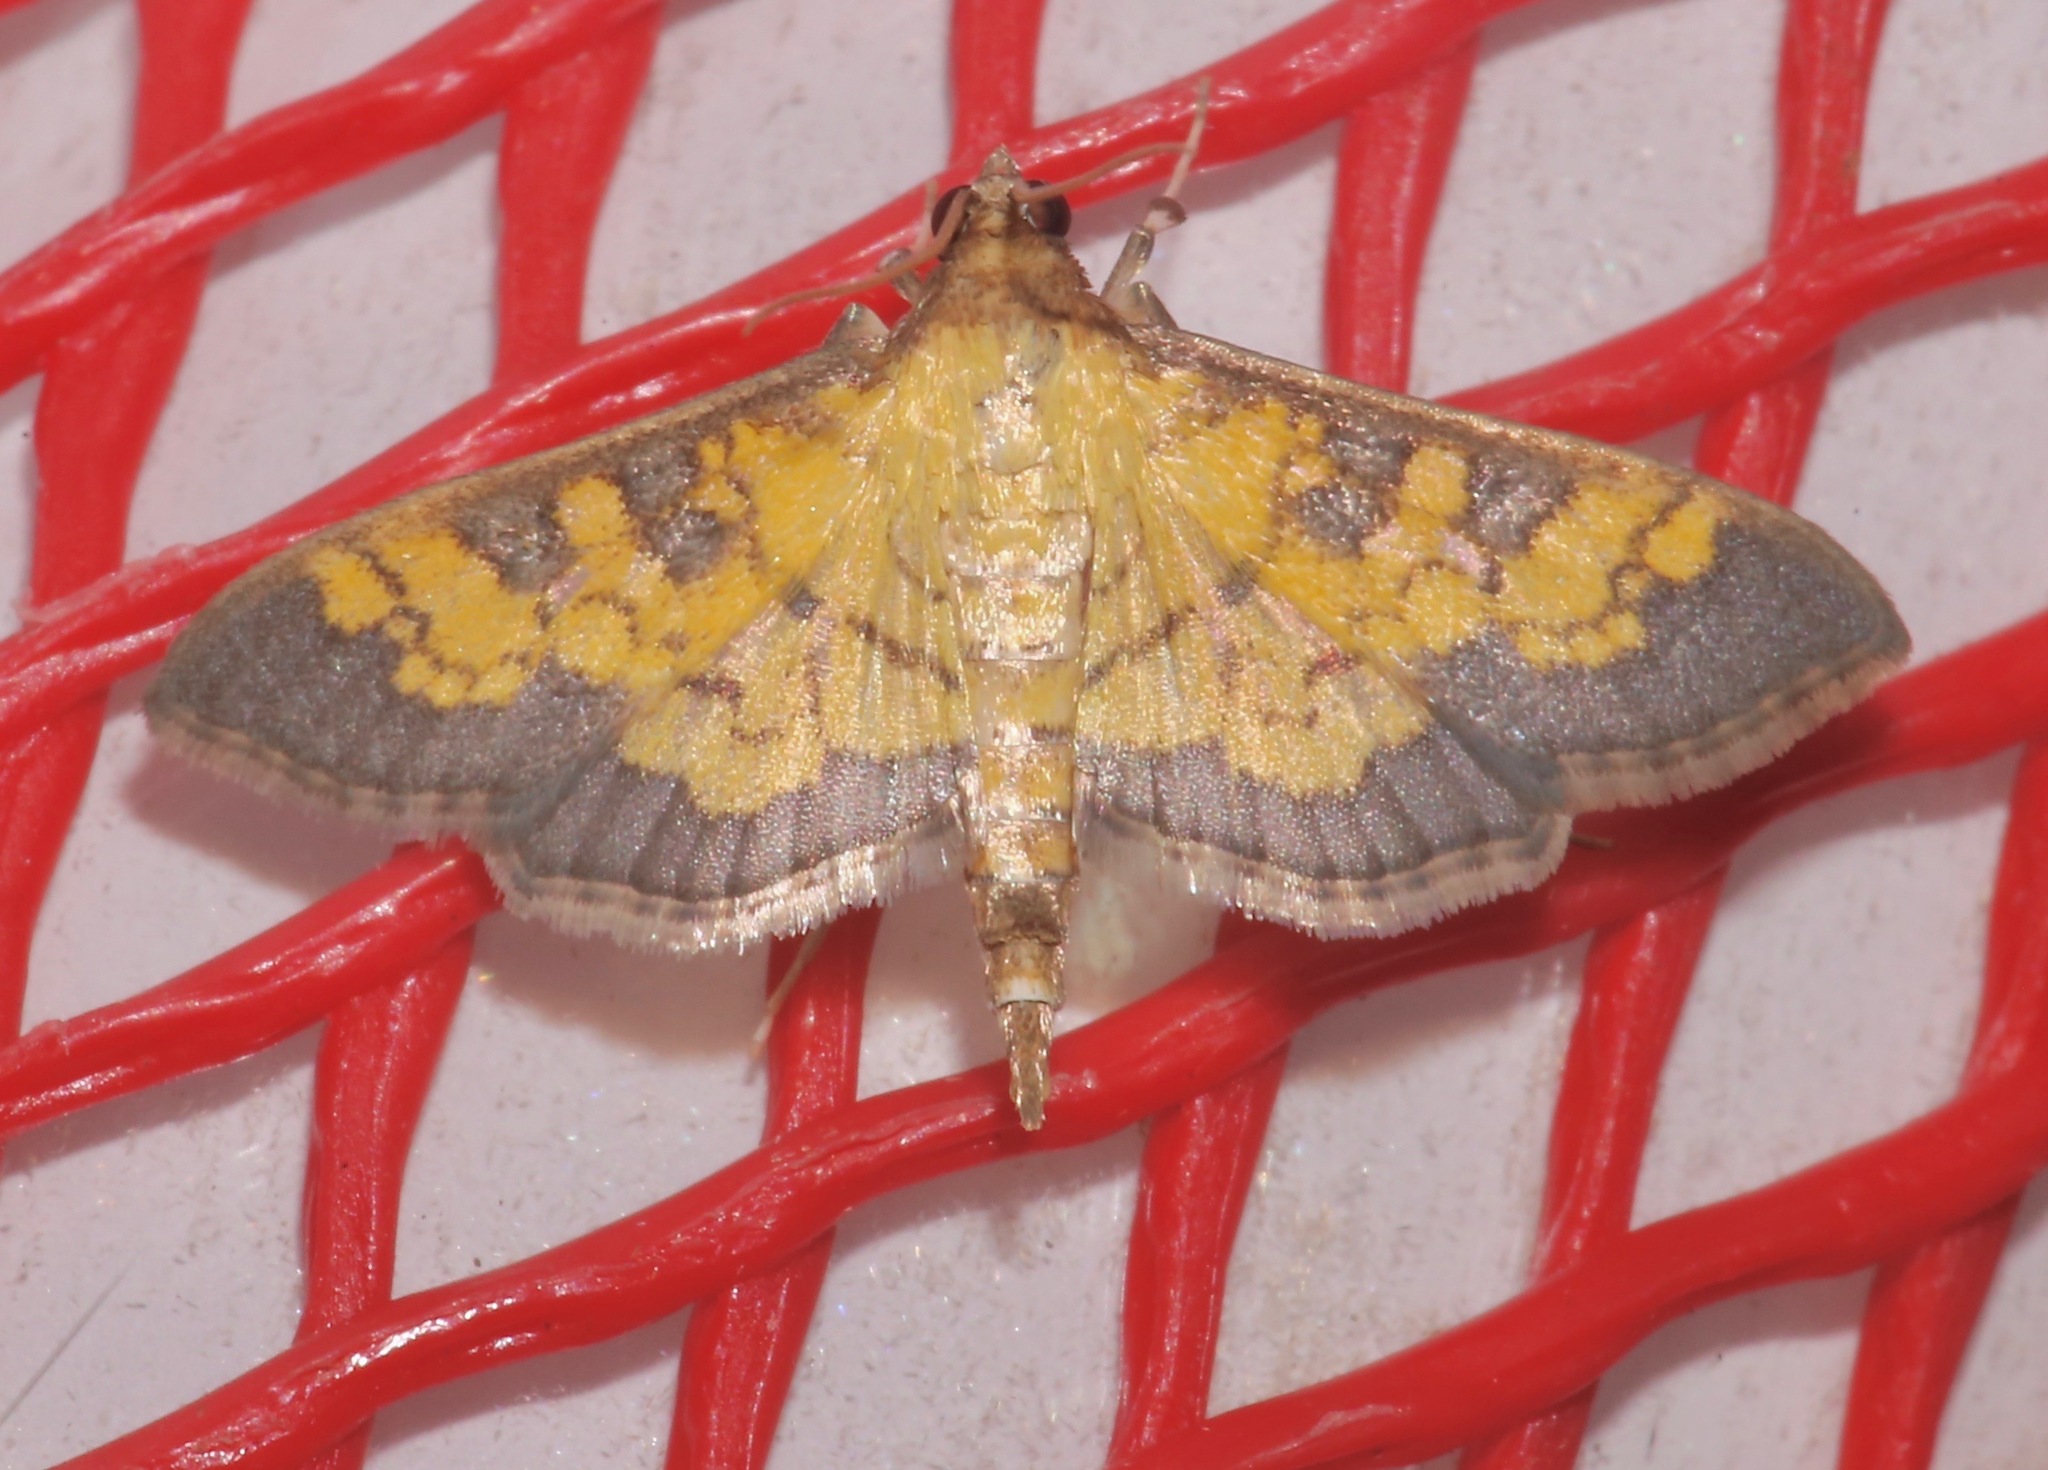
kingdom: Animalia
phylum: Arthropoda
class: Insecta
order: Lepidoptera
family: Crambidae
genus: Epipagis
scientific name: Epipagis adipaloides
